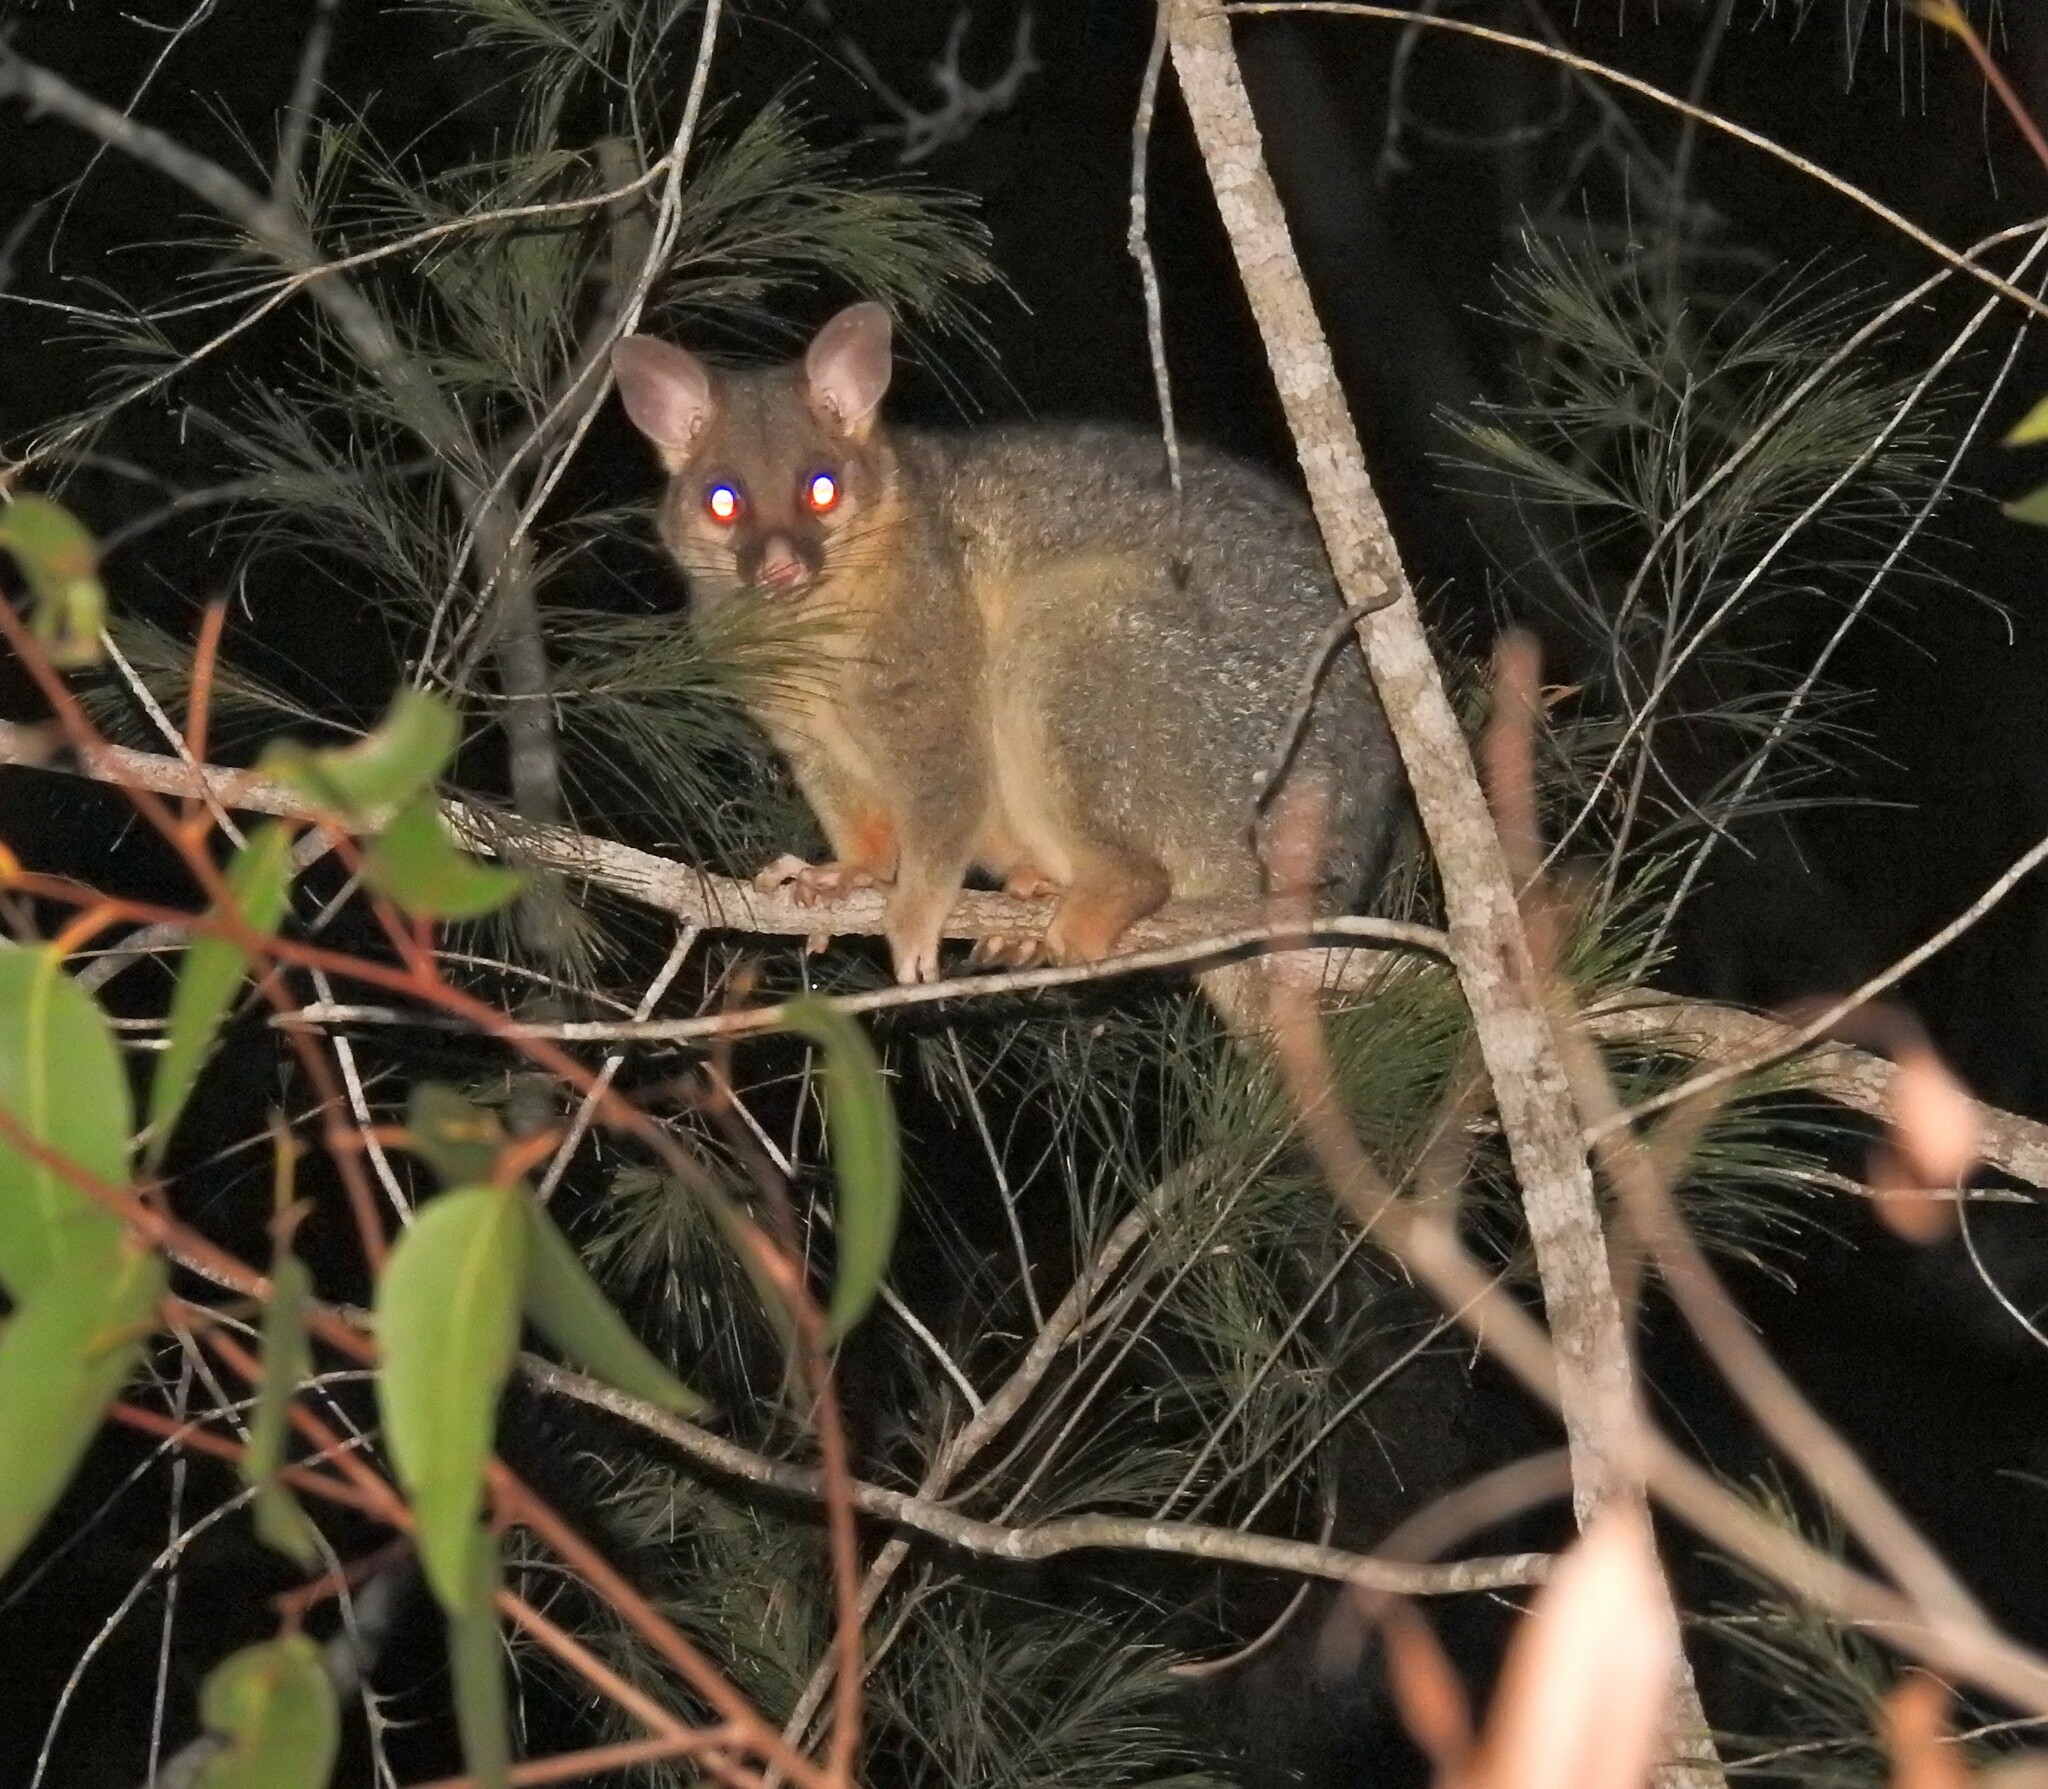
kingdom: Animalia
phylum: Chordata
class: Mammalia
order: Diprotodontia
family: Phalangeridae
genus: Trichosurus
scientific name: Trichosurus vulpecula
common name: Common brushtail
